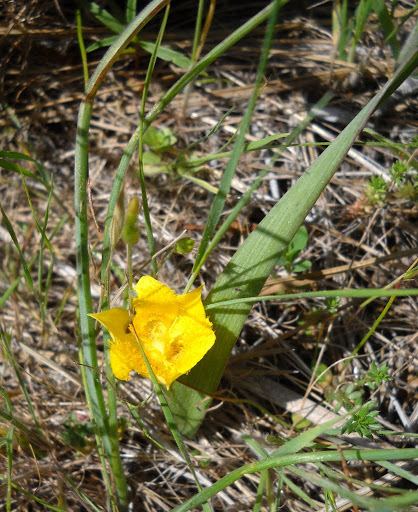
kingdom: Plantae
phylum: Tracheophyta
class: Liliopsida
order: Liliales
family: Liliaceae
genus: Calochortus
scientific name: Calochortus monophyllus
